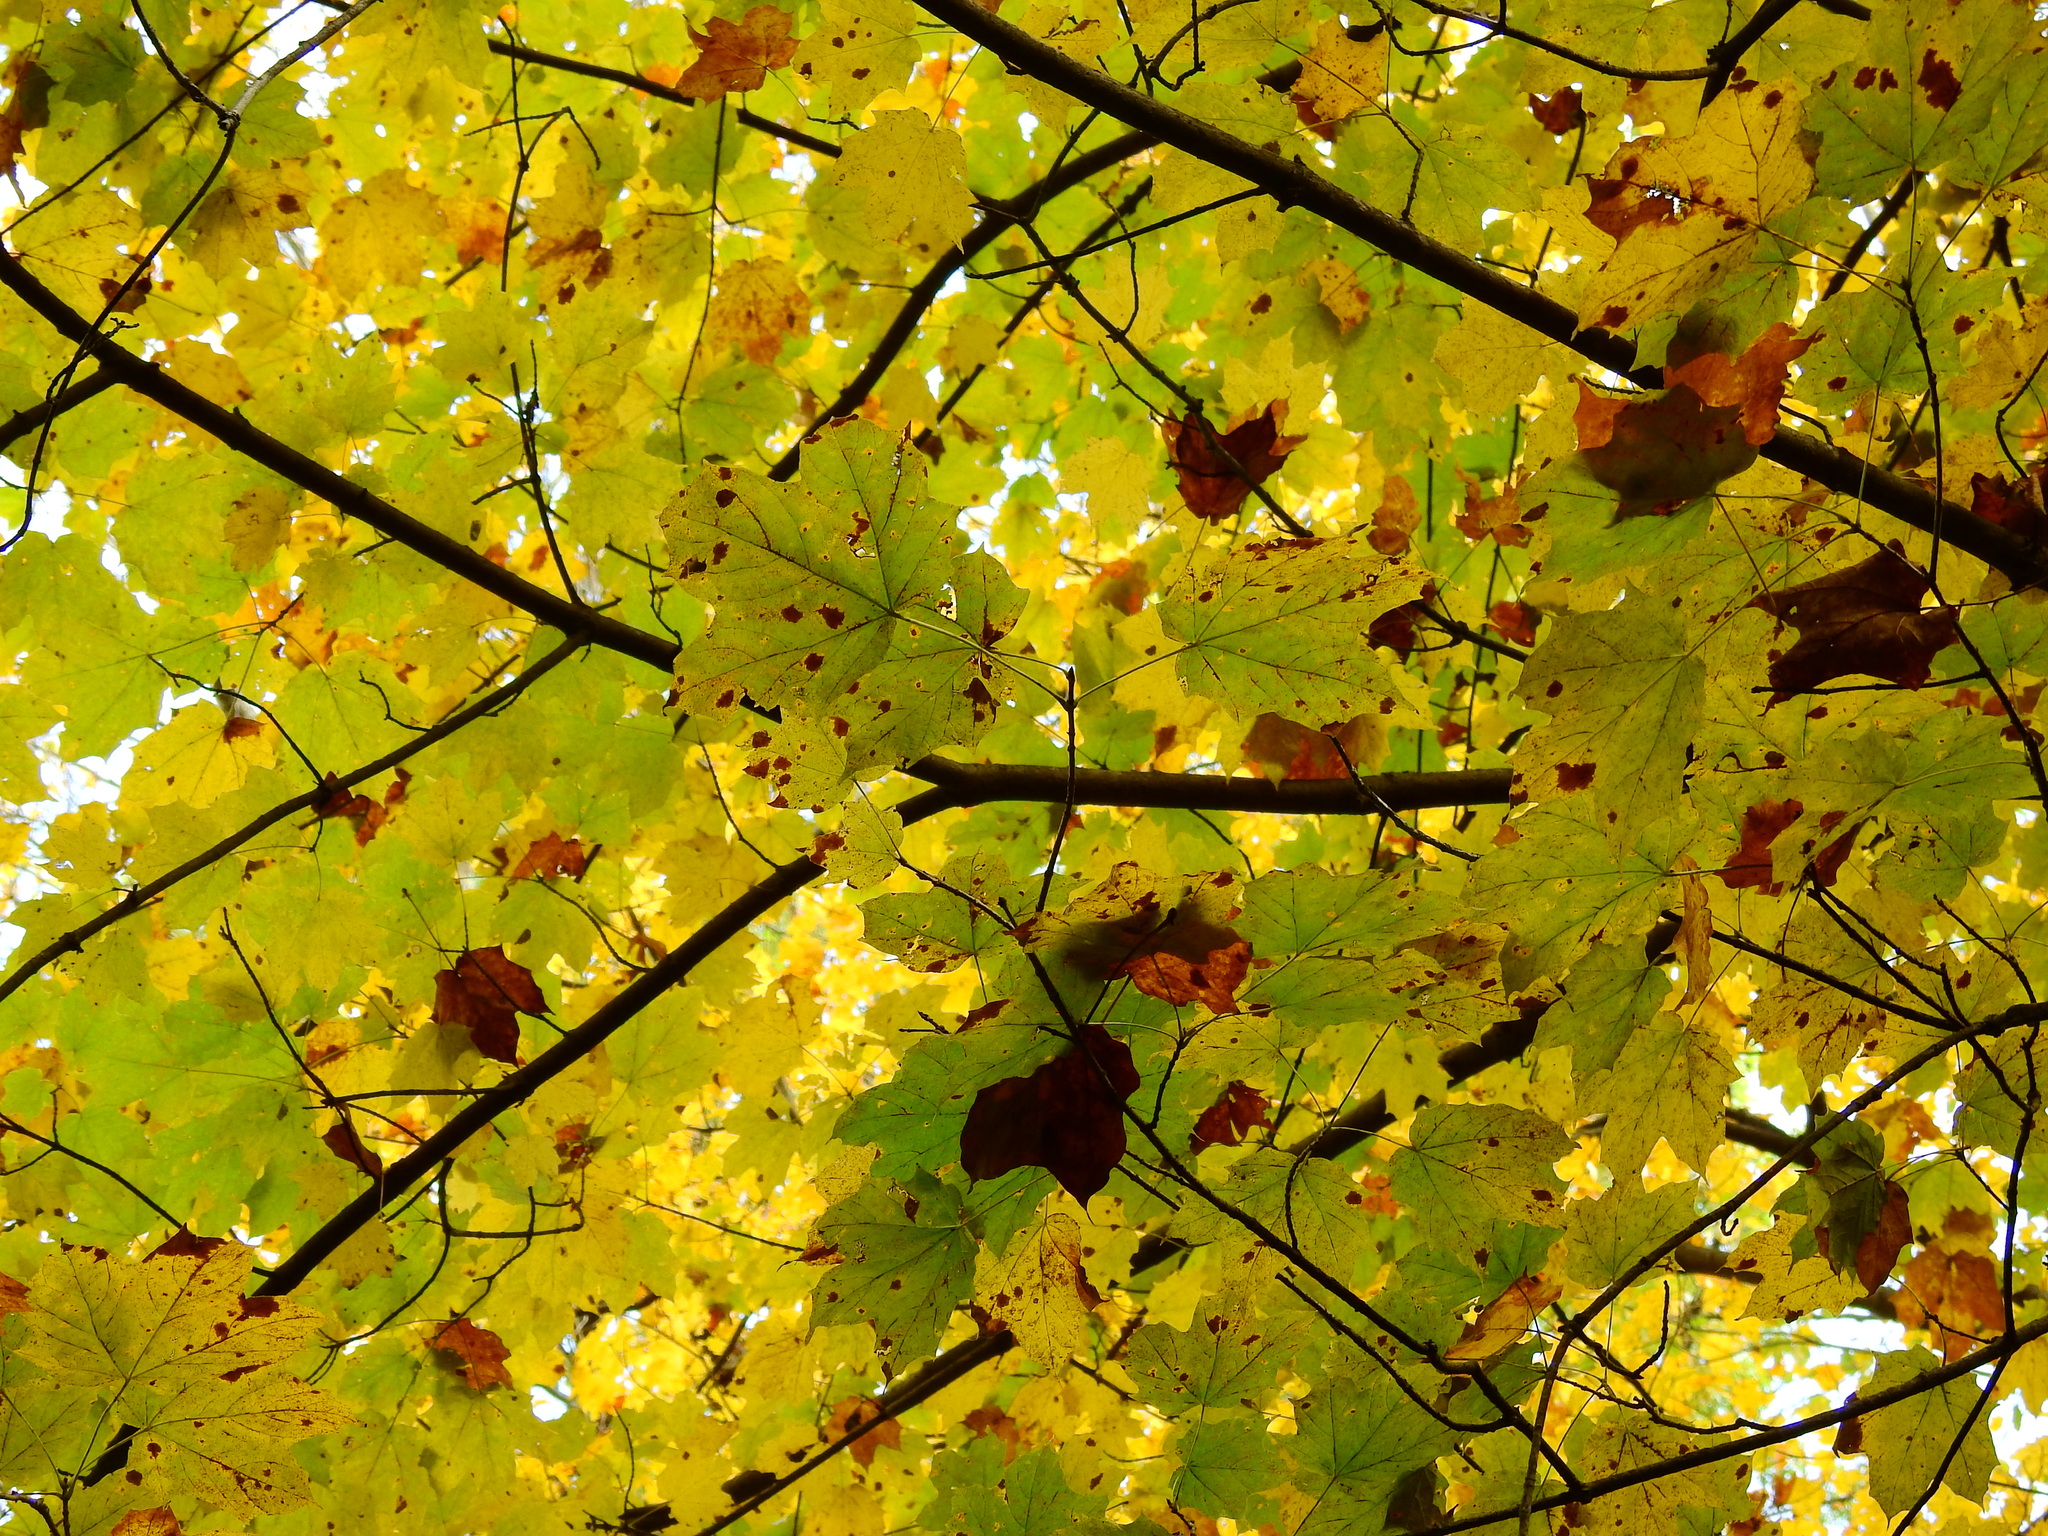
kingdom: Plantae
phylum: Tracheophyta
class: Magnoliopsida
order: Sapindales
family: Sapindaceae
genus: Acer
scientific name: Acer saccharum
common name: Sugar maple
